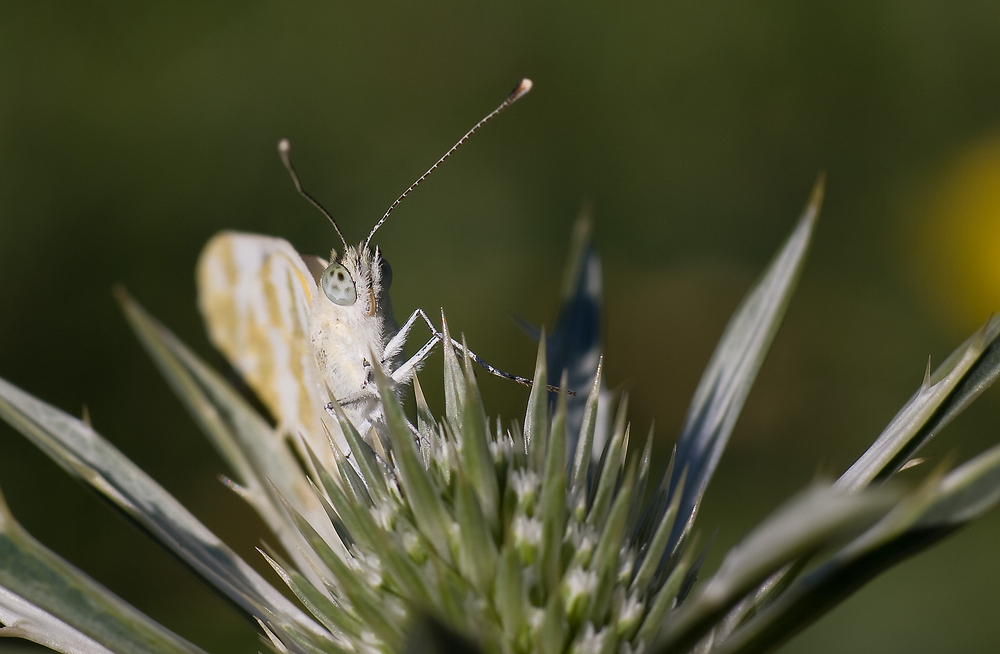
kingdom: Animalia
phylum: Arthropoda
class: Insecta
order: Lepidoptera
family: Pieridae
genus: Pontia
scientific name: Pontia daplidice
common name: Bath white
